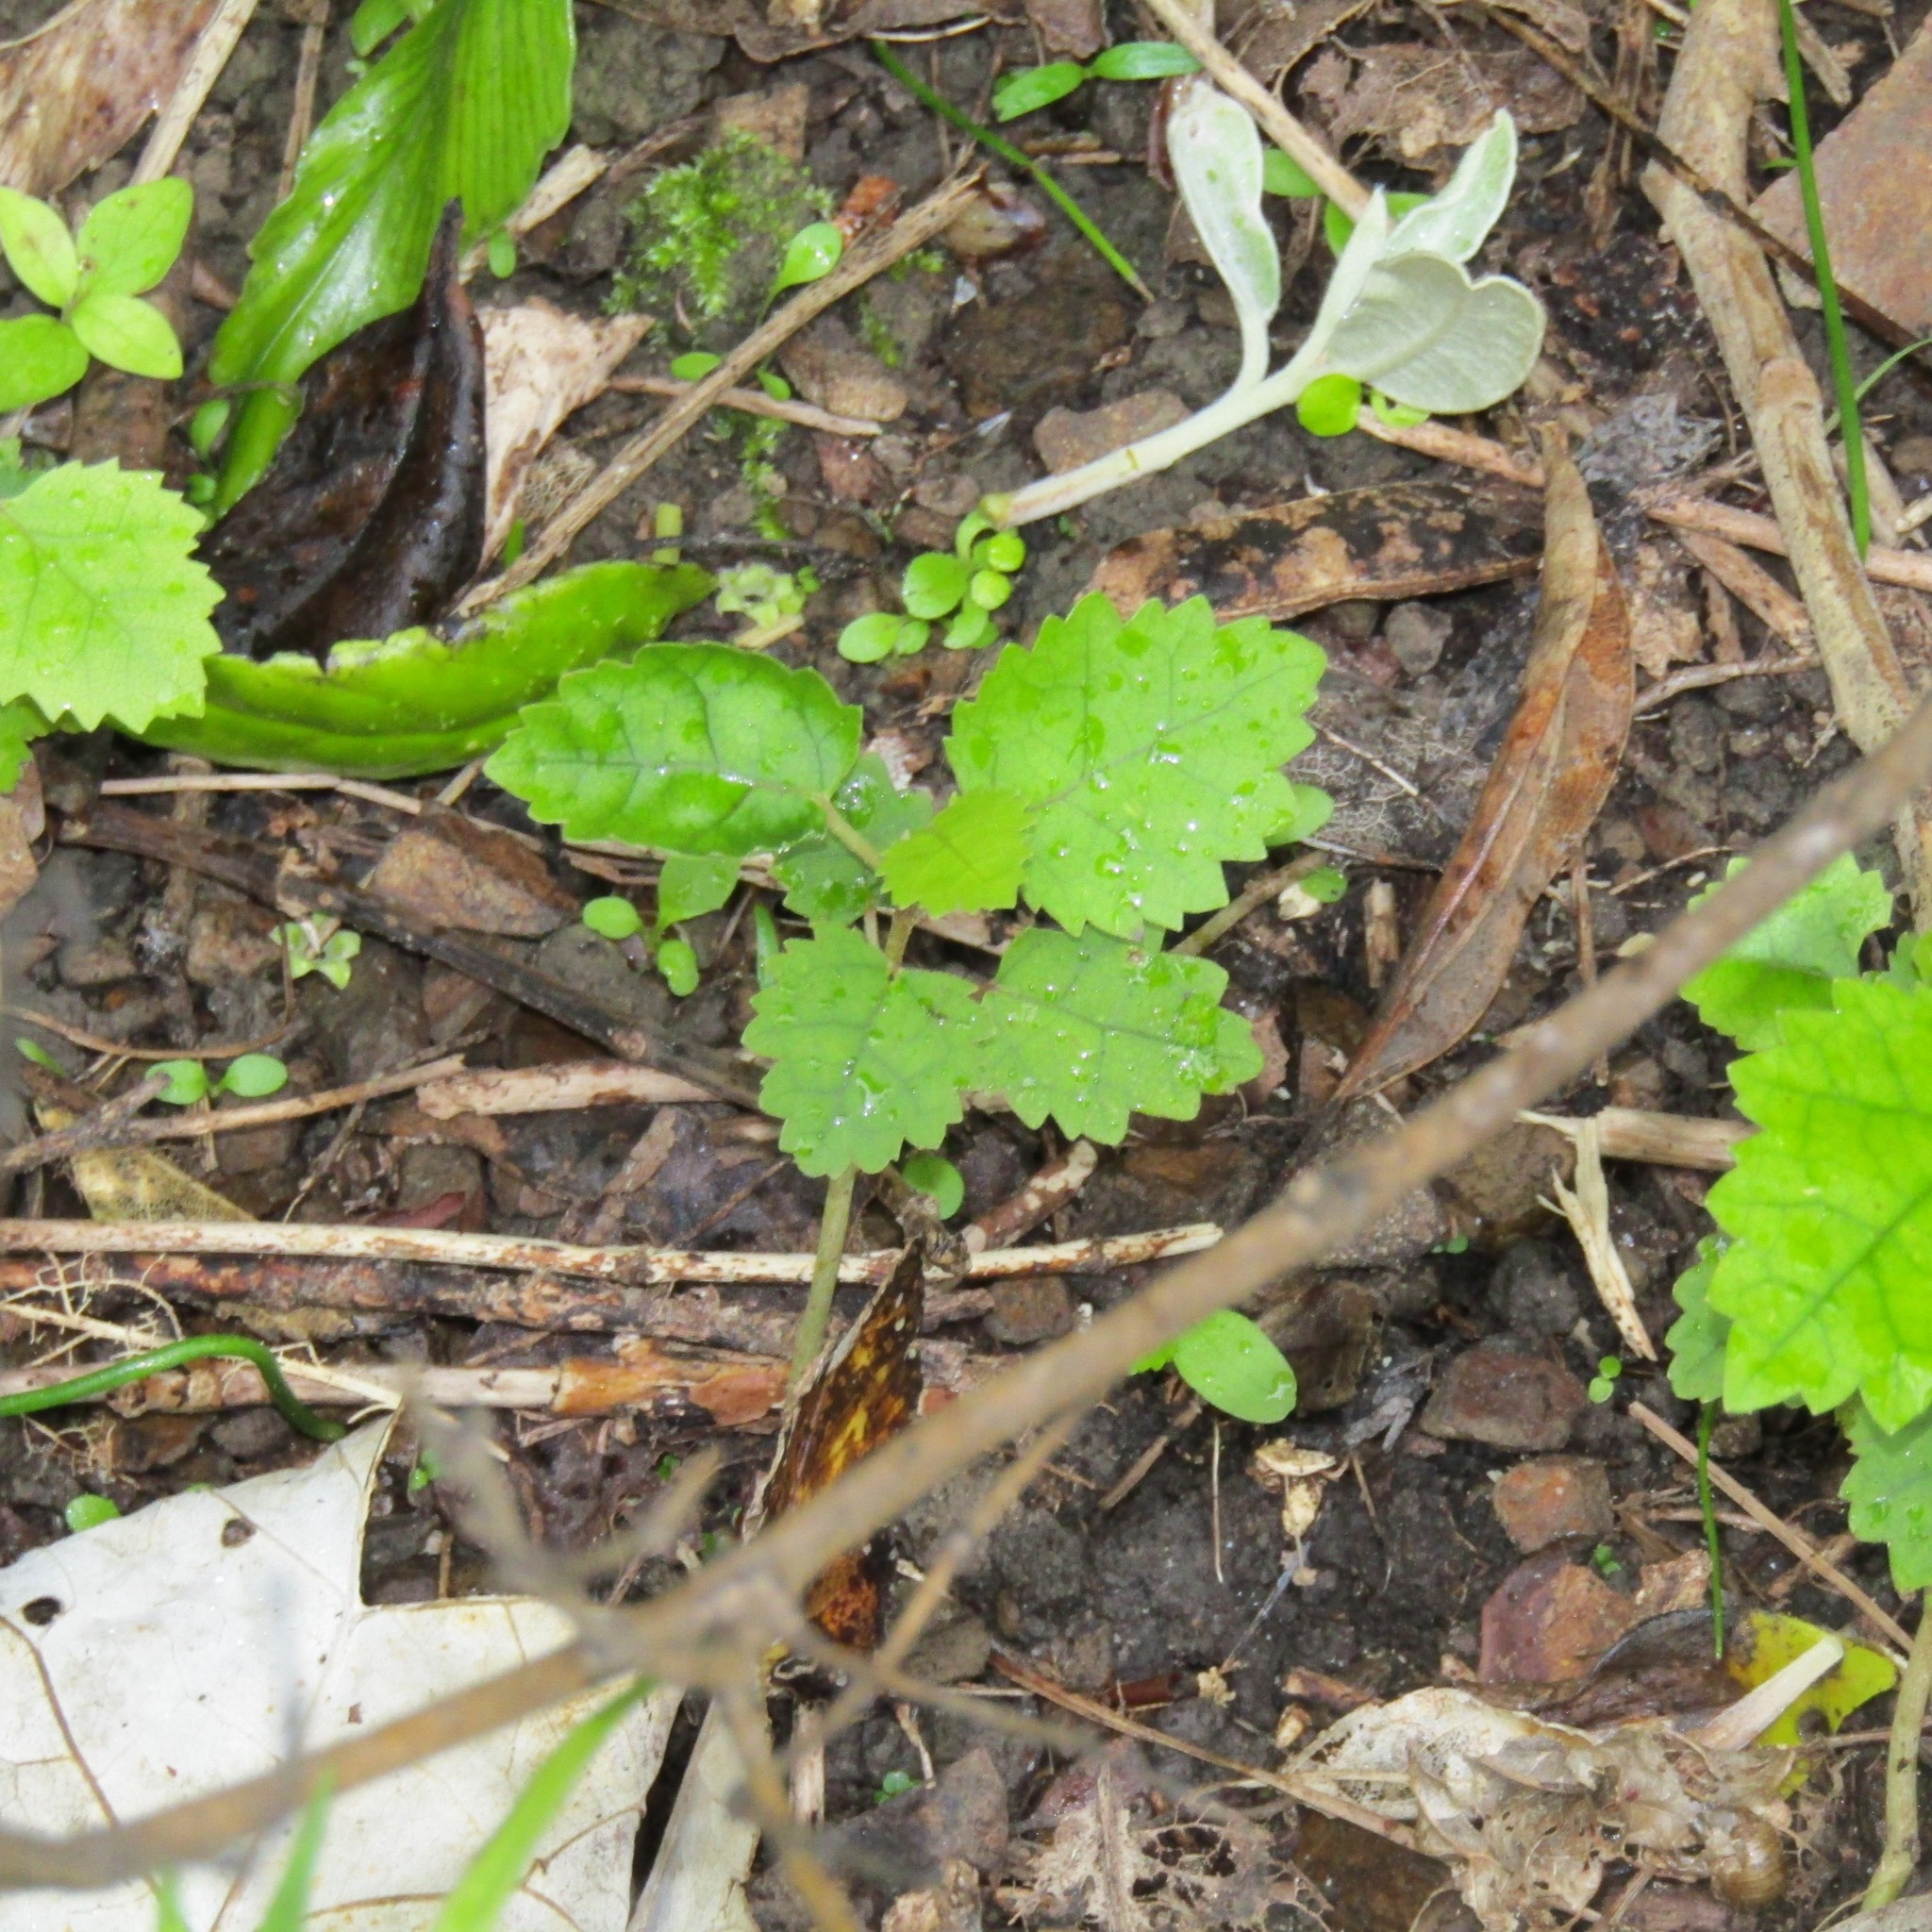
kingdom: Plantae
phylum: Tracheophyta
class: Magnoliopsida
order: Malvales
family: Malvaceae
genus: Hoheria
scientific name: Hoheria populnea
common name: Lacebark
